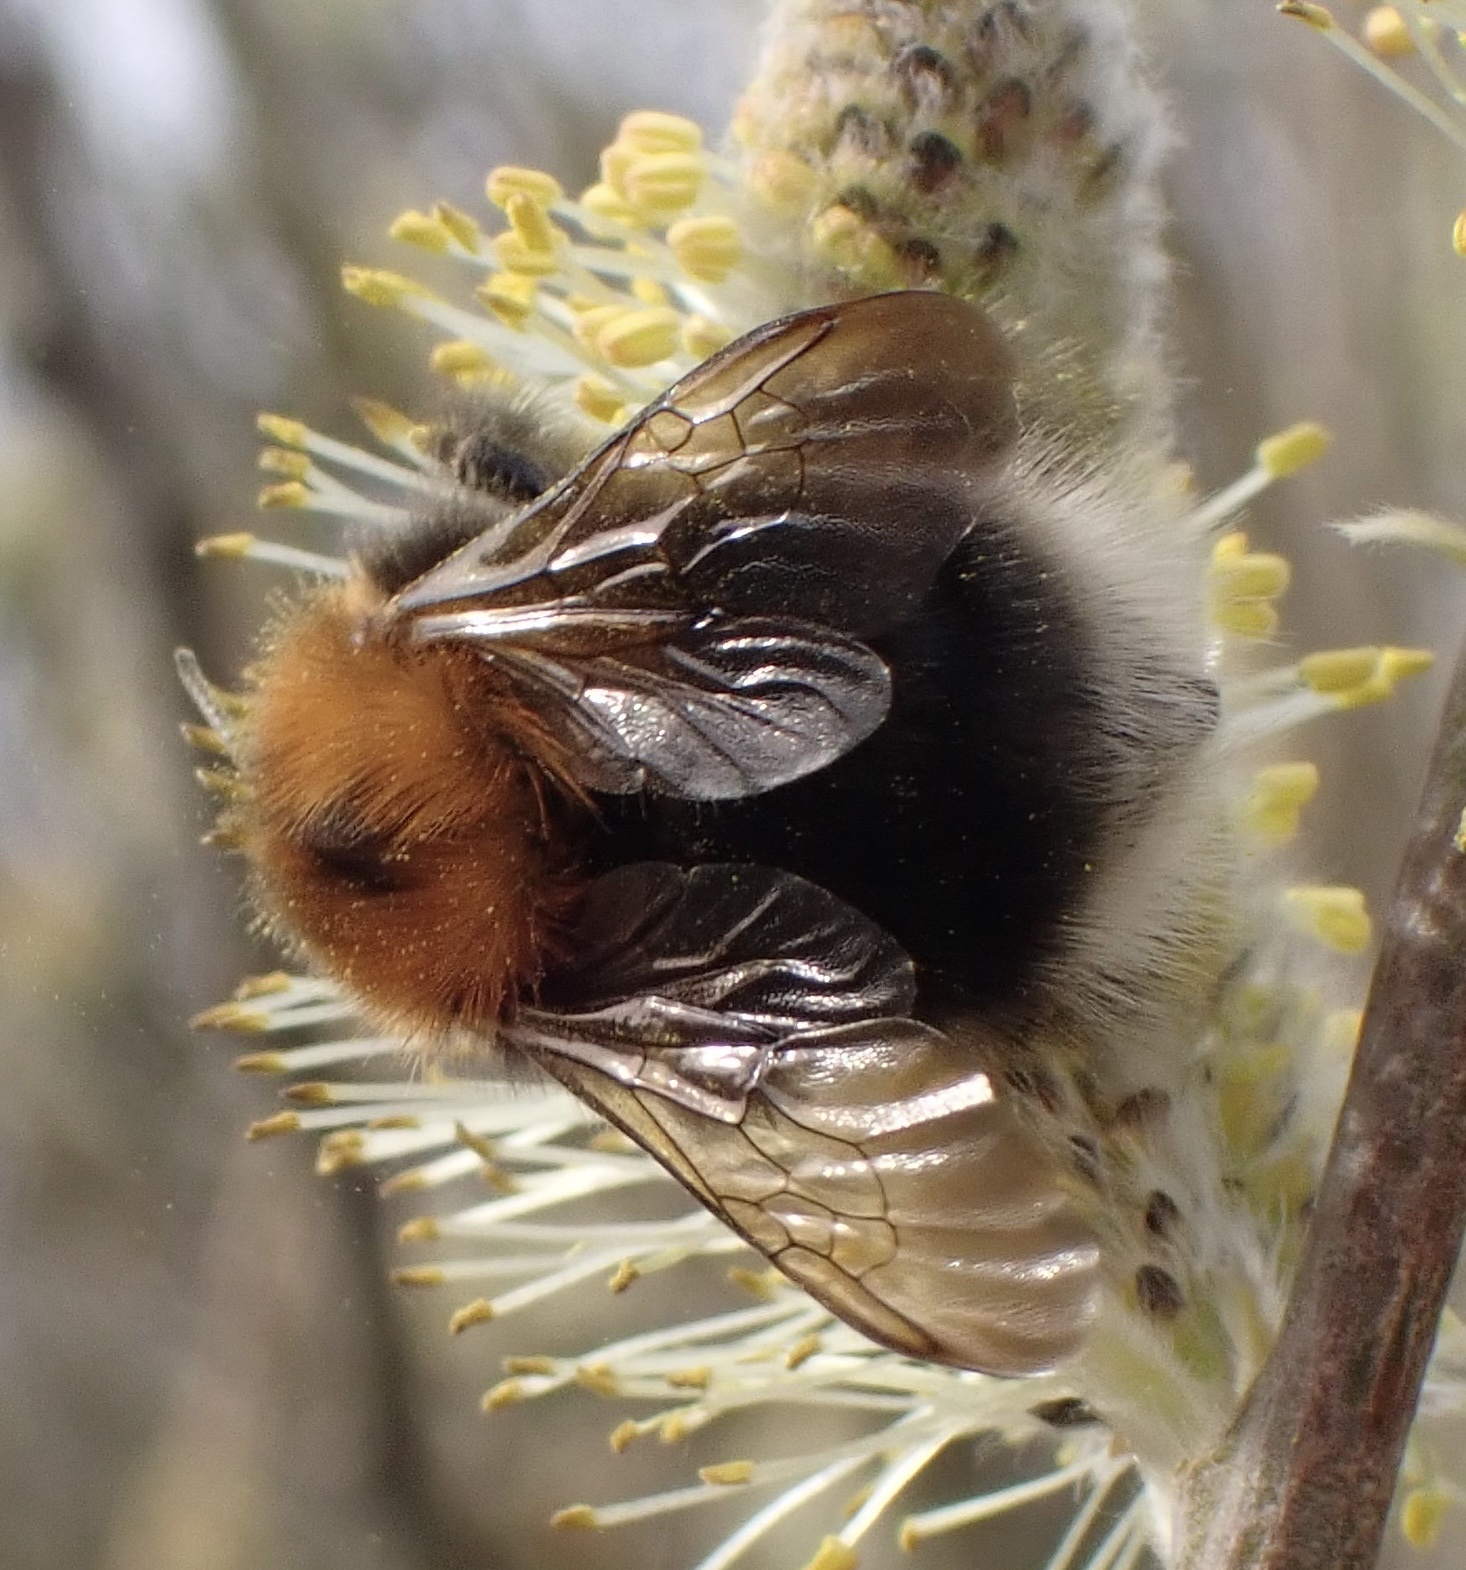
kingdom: Animalia
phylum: Arthropoda
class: Insecta
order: Hymenoptera
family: Apidae
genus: Bombus
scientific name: Bombus hypnorum
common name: New garden bumblebee
